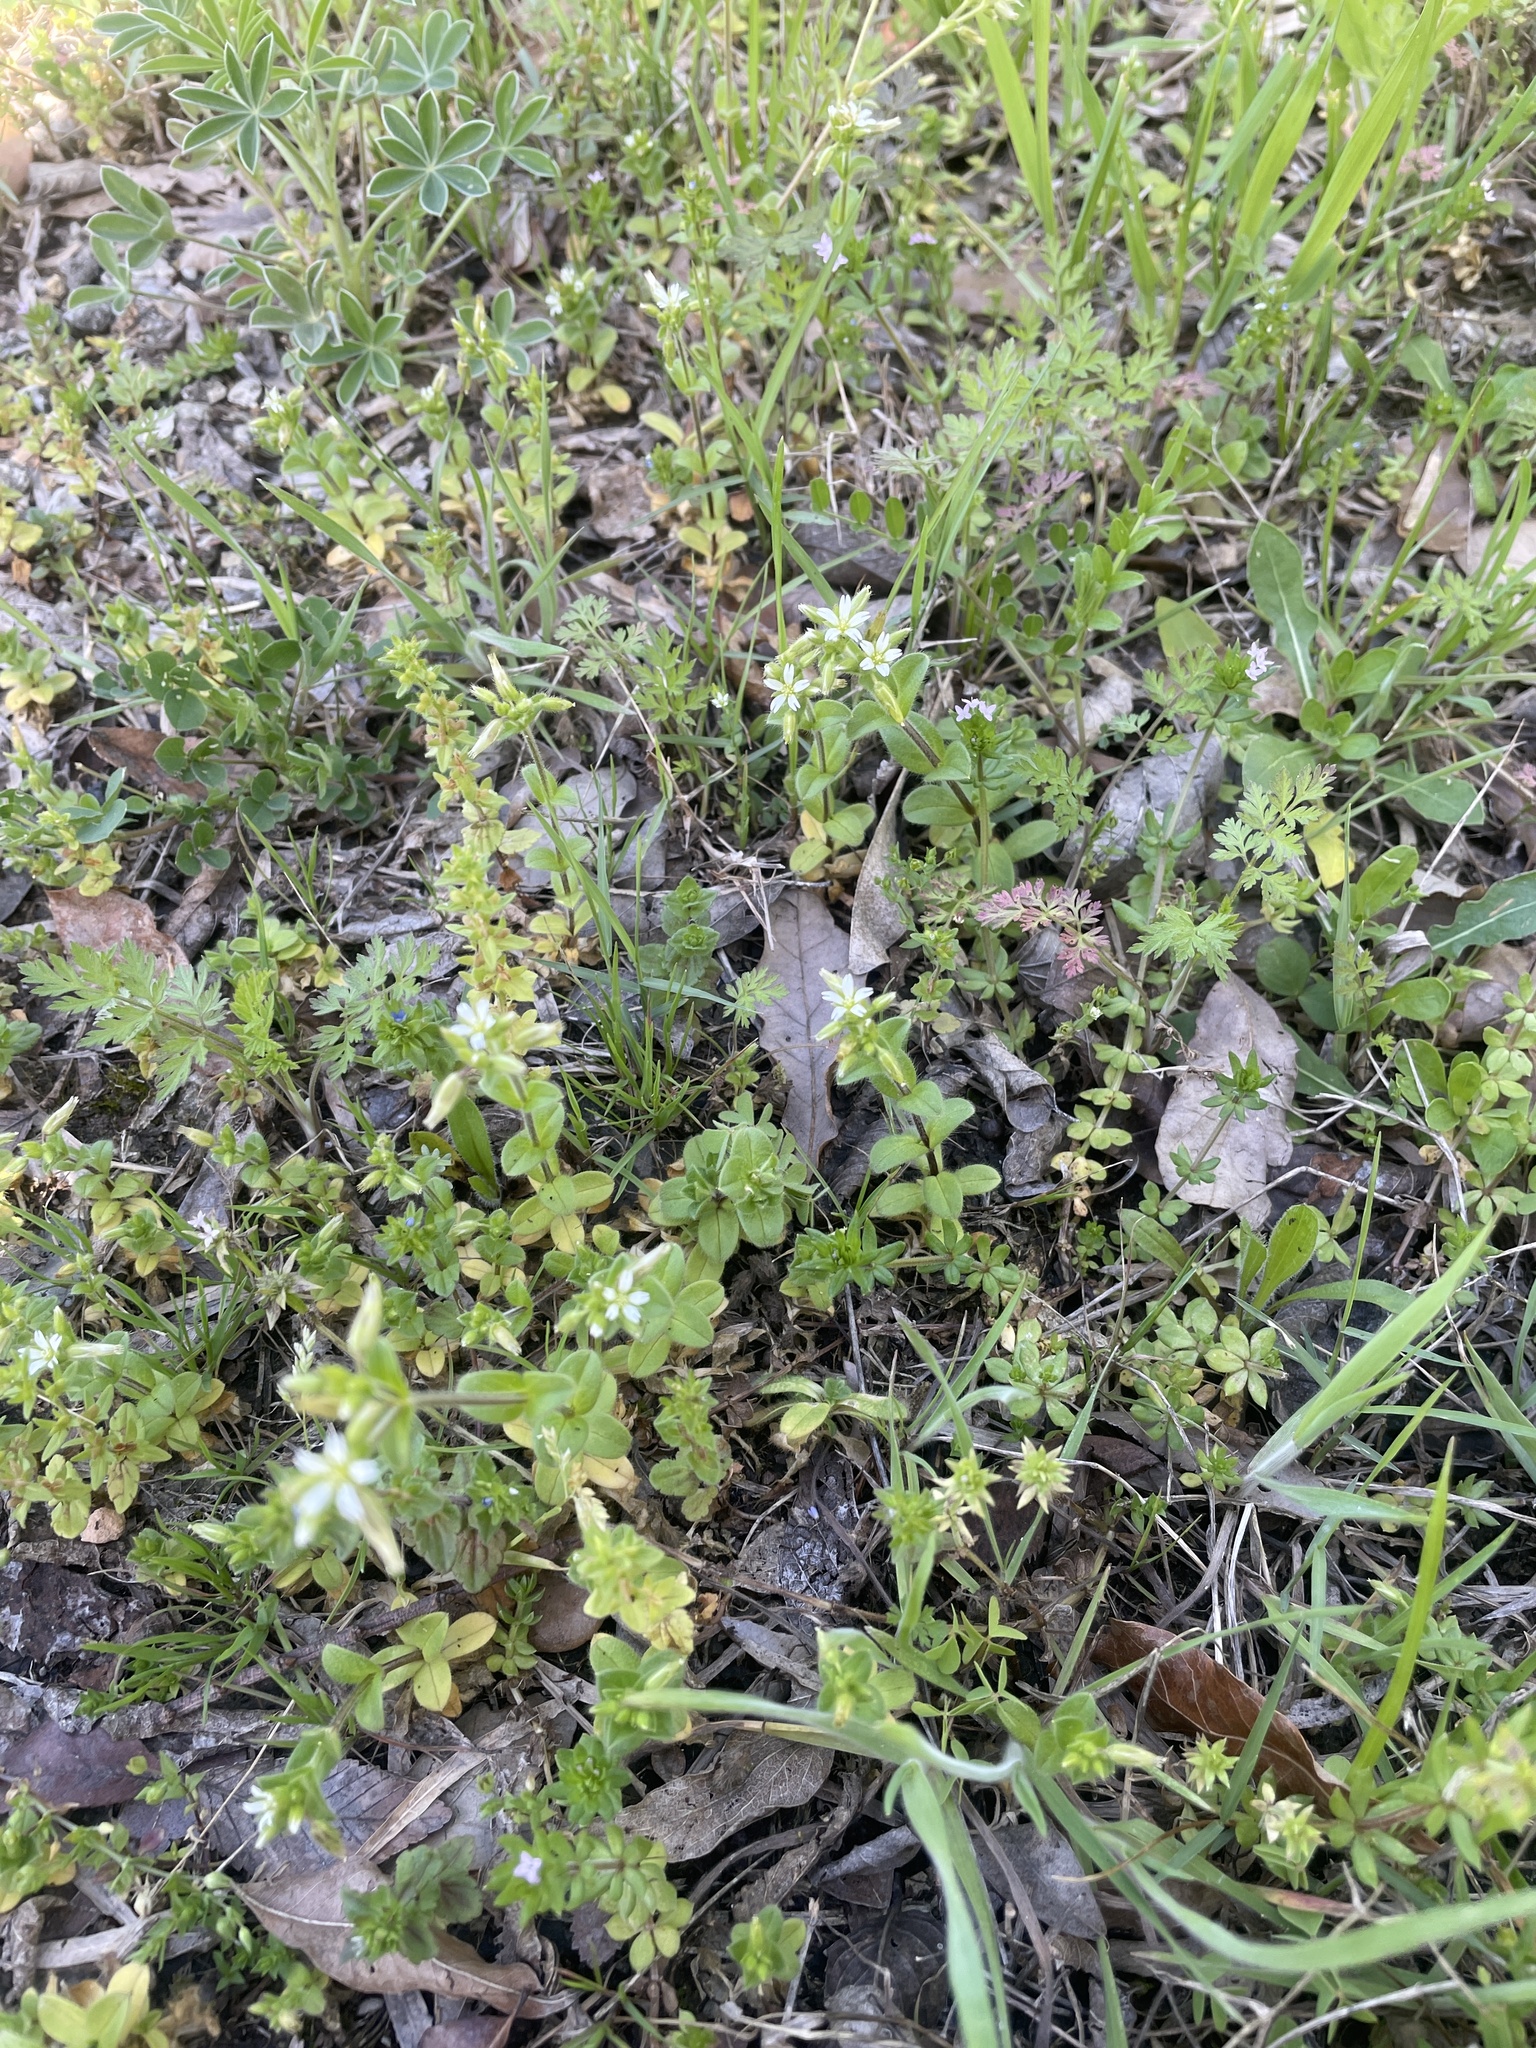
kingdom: Plantae
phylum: Tracheophyta
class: Magnoliopsida
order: Caryophyllales
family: Caryophyllaceae
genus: Cerastium
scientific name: Cerastium glomeratum
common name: Sticky chickweed
